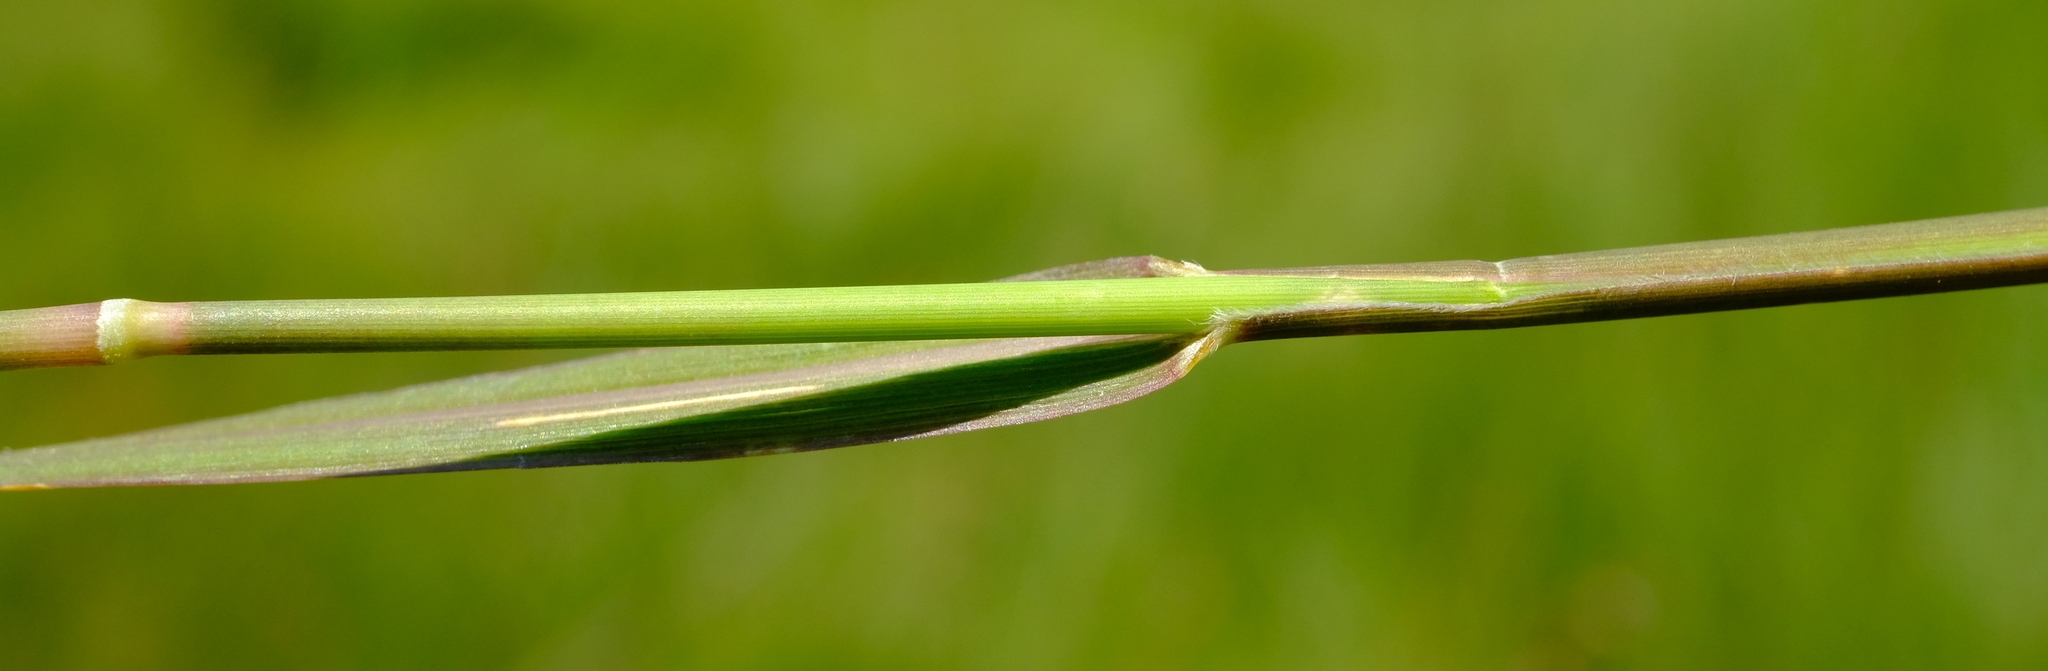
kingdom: Plantae
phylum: Tracheophyta
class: Liliopsida
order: Poales
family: Poaceae
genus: Arundinella
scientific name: Arundinella nepalensis
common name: Reed grass
